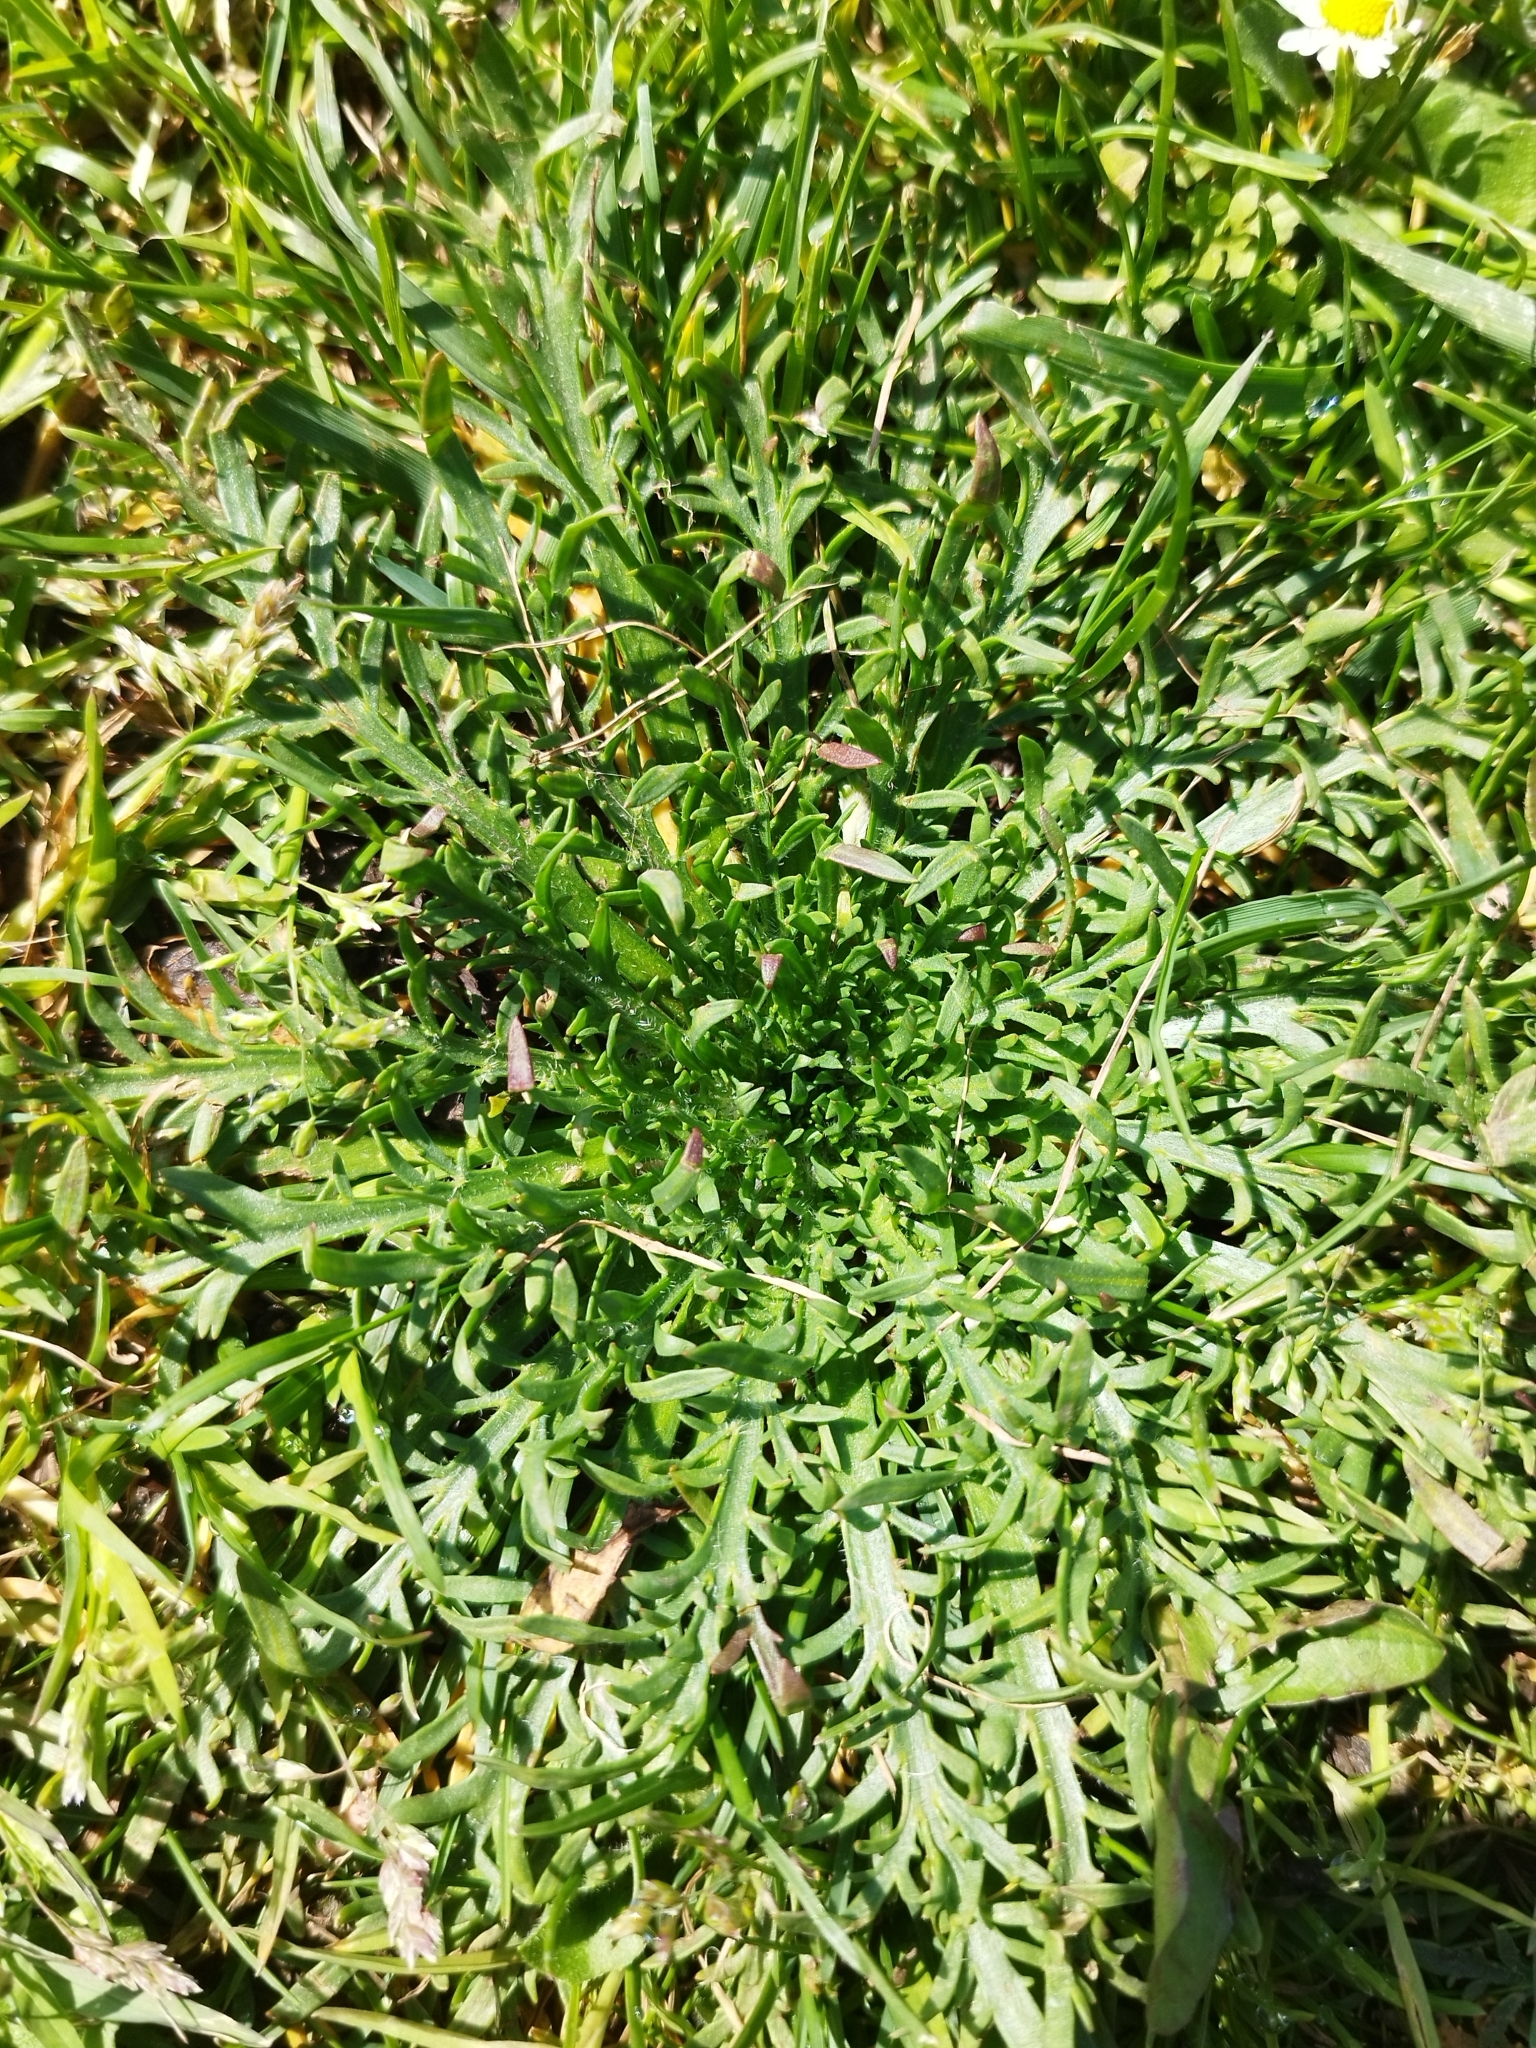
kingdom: Plantae
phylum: Tracheophyta
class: Magnoliopsida
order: Lamiales
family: Plantaginaceae
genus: Plantago
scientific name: Plantago coronopus
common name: Buck's-horn plantain
